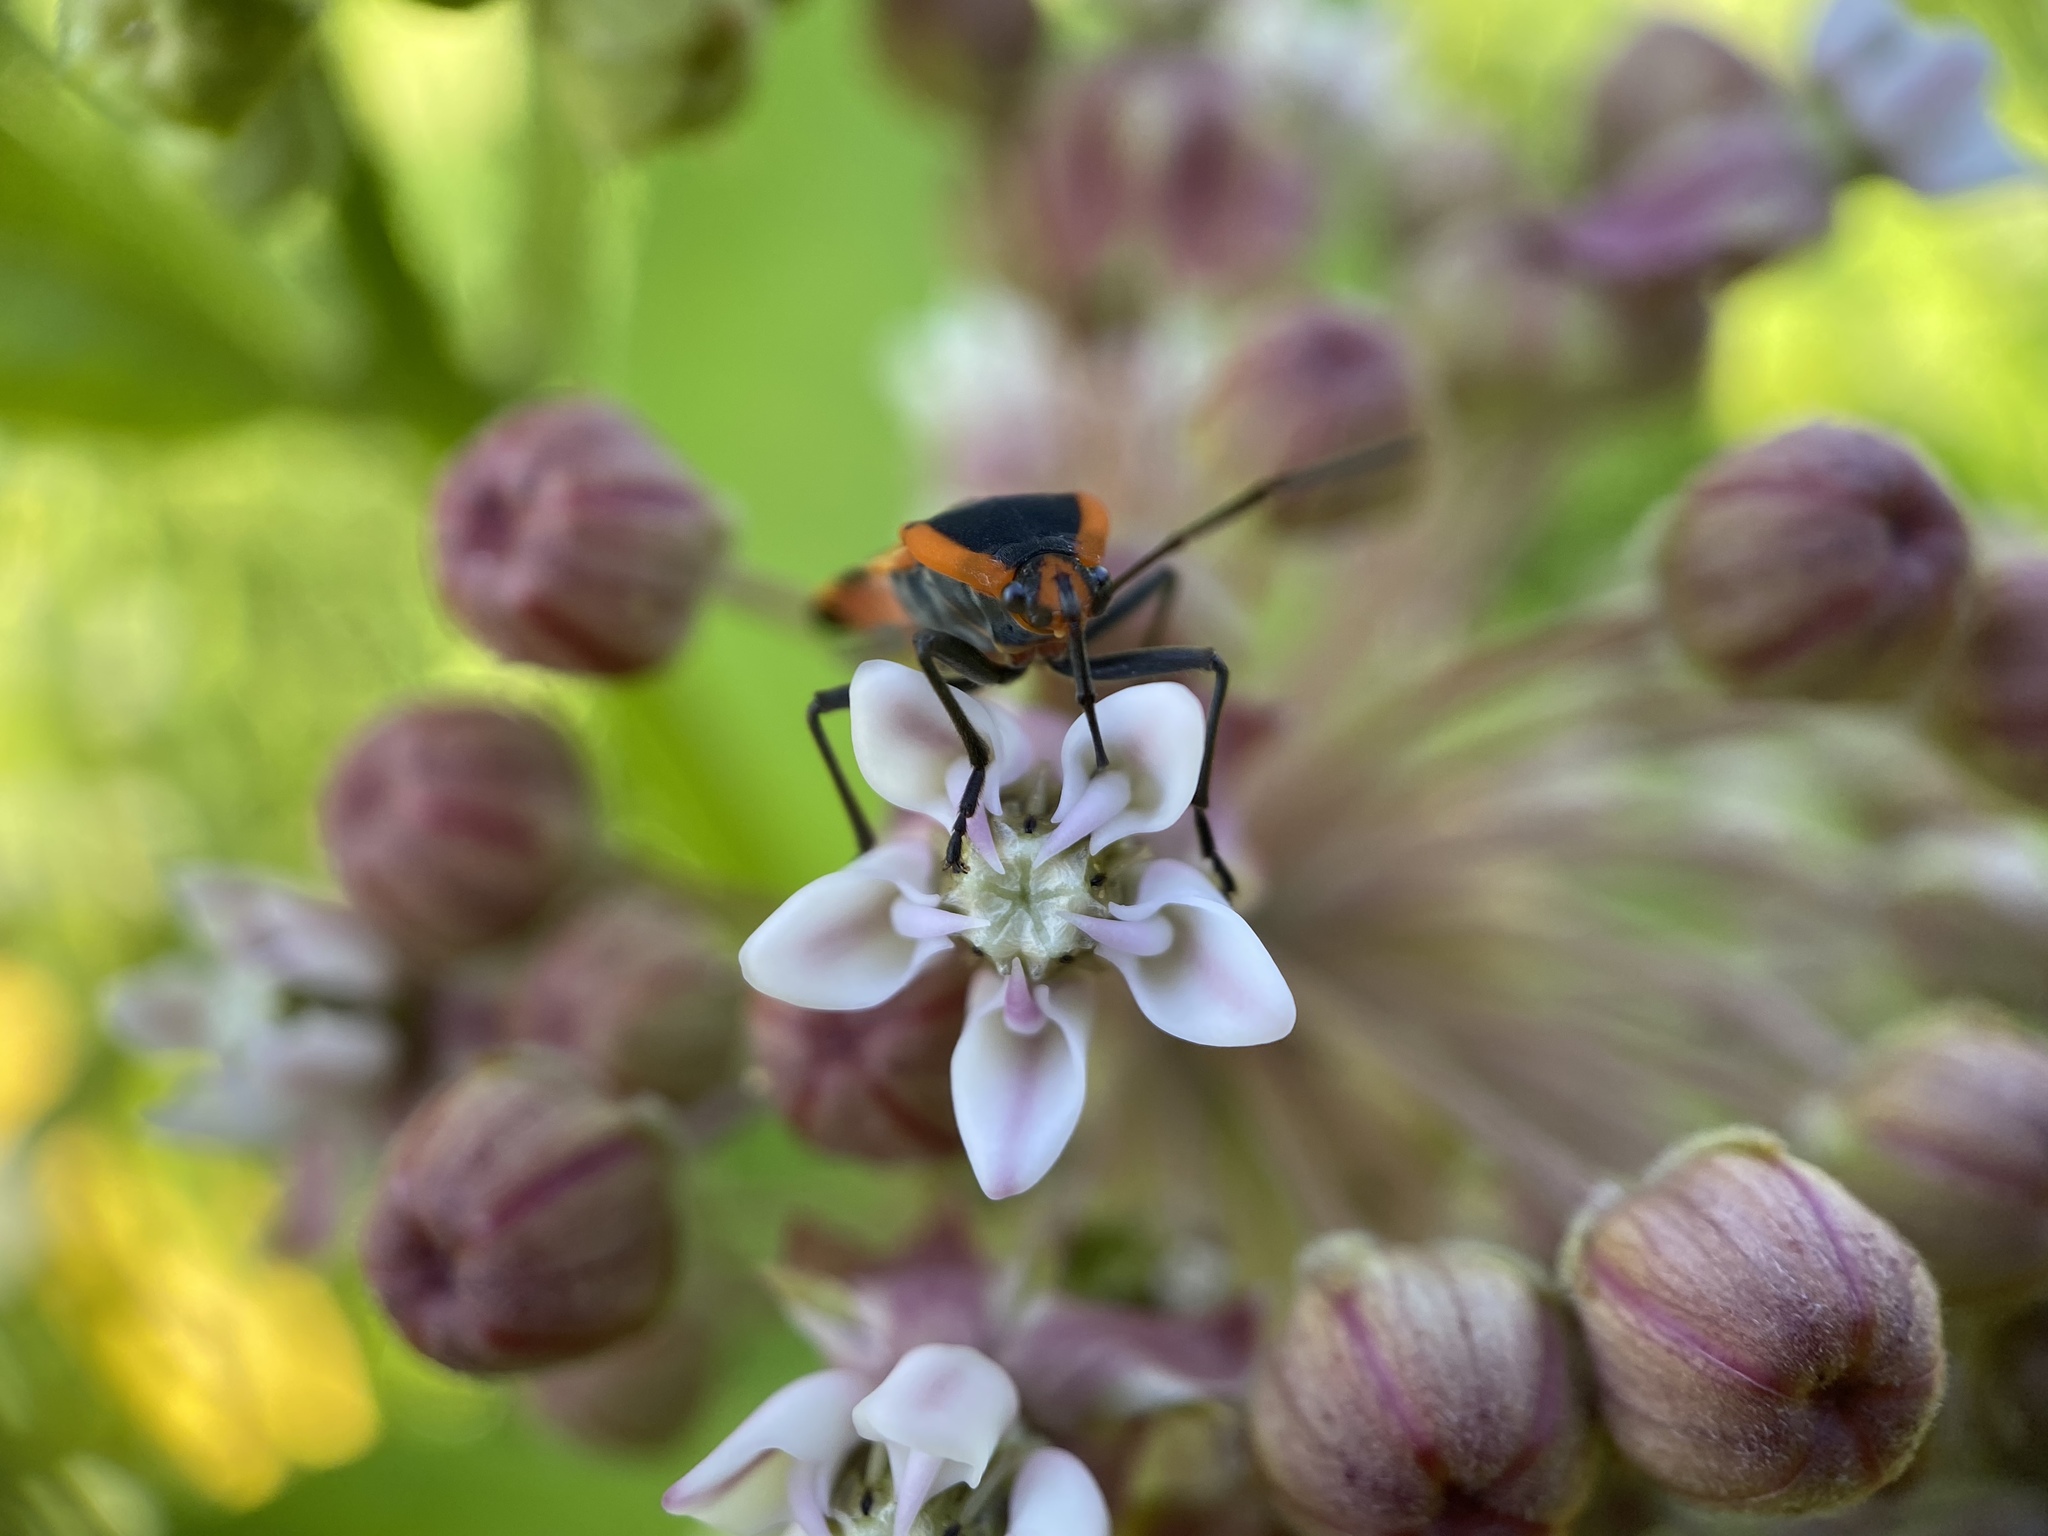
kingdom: Animalia
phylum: Arthropoda
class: Insecta
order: Hemiptera
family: Lygaeidae
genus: Oncopeltus
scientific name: Oncopeltus fasciatus
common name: Large milkweed bug
